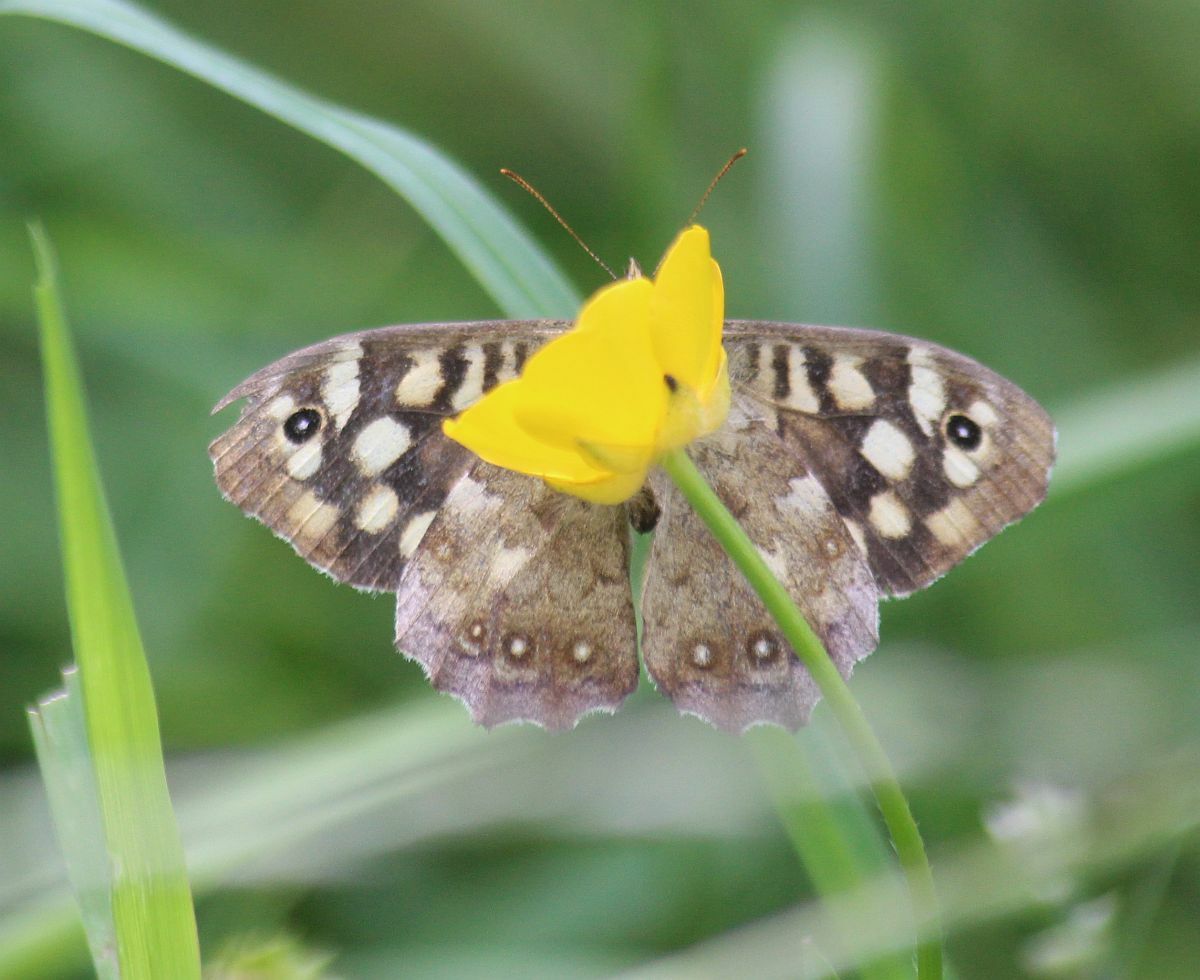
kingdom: Animalia
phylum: Arthropoda
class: Insecta
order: Lepidoptera
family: Nymphalidae
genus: Pararge
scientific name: Pararge aegeria
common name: Speckled wood
